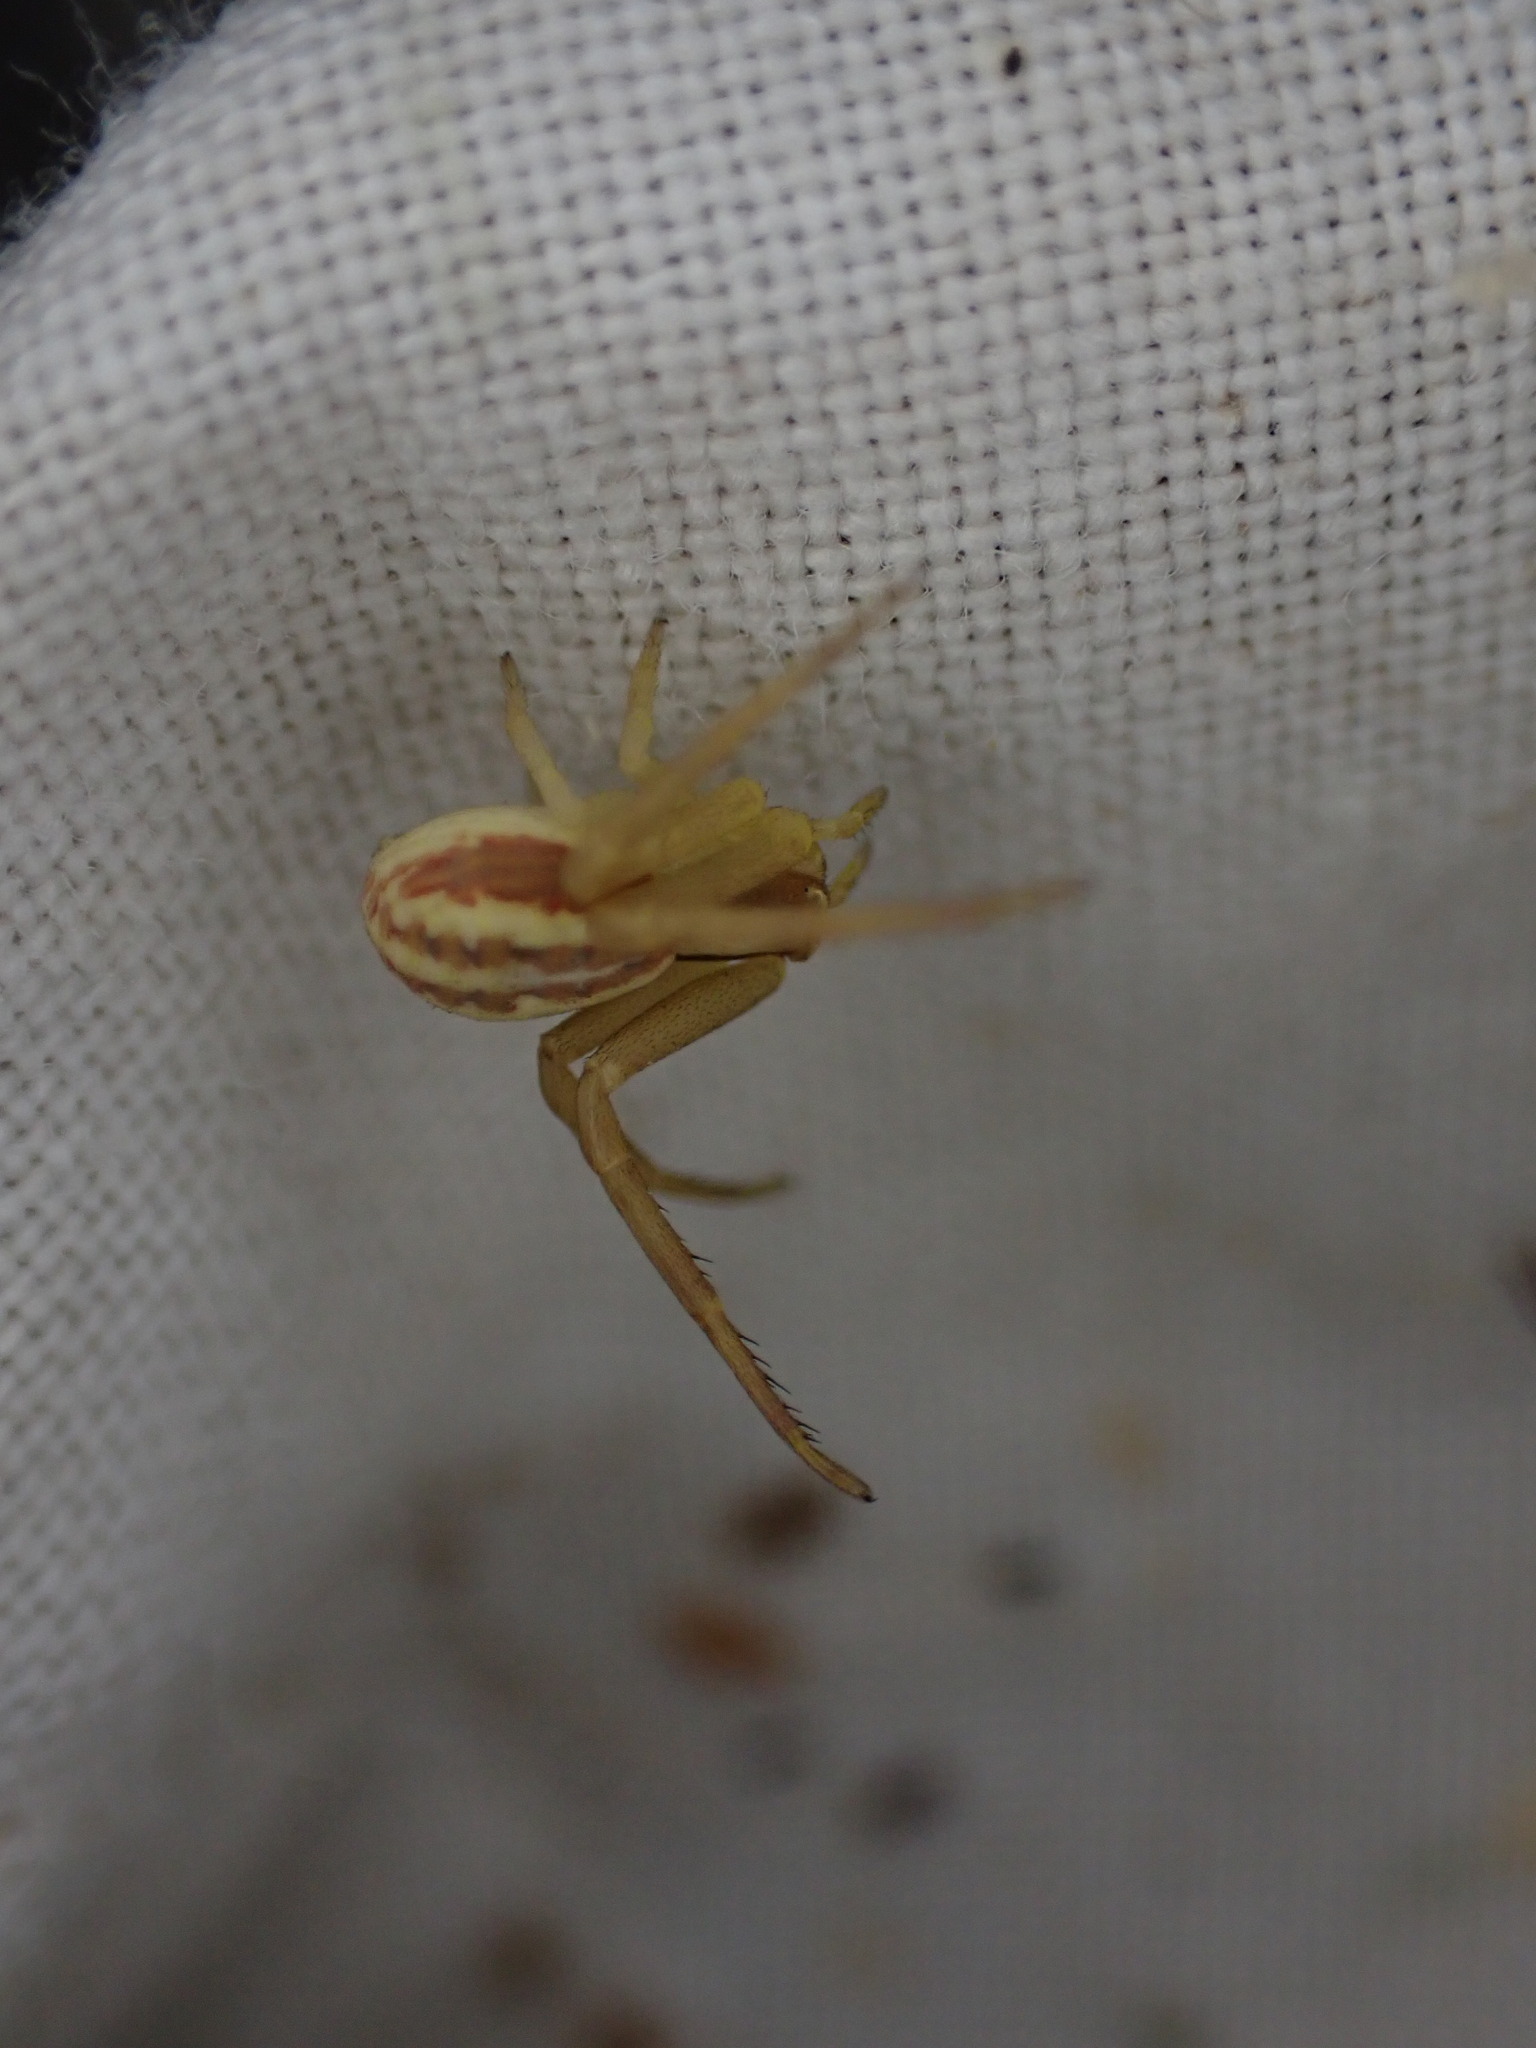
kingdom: Animalia
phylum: Arthropoda
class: Arachnida
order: Araneae
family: Thomisidae
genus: Runcinia
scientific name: Runcinia grammica
